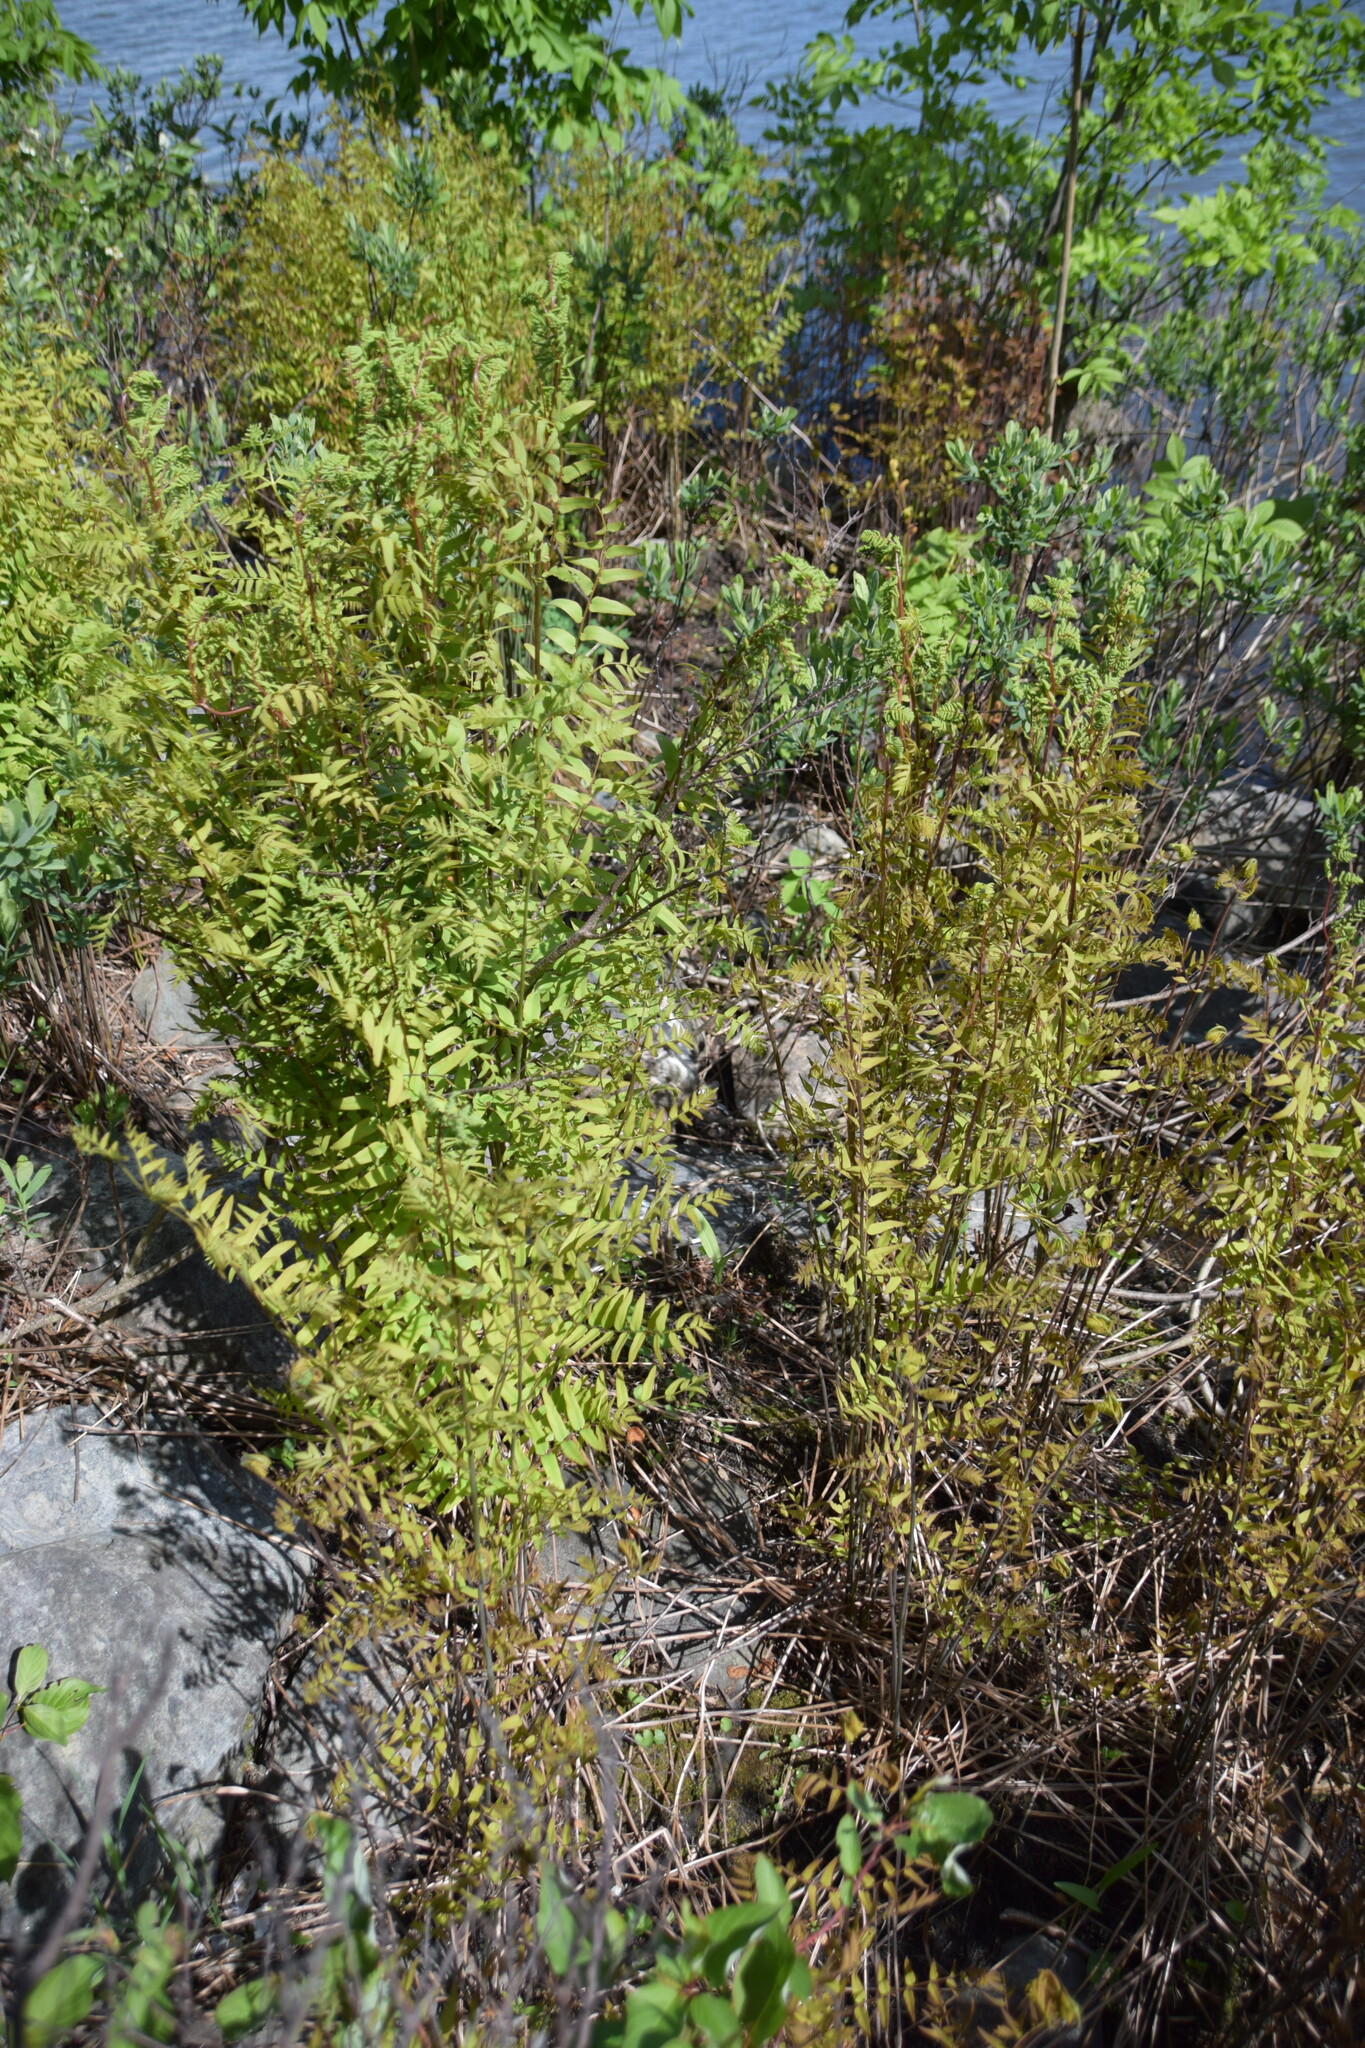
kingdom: Plantae
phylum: Tracheophyta
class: Polypodiopsida
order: Osmundales
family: Osmundaceae
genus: Osmunda
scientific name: Osmunda spectabilis
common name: American royal fern
